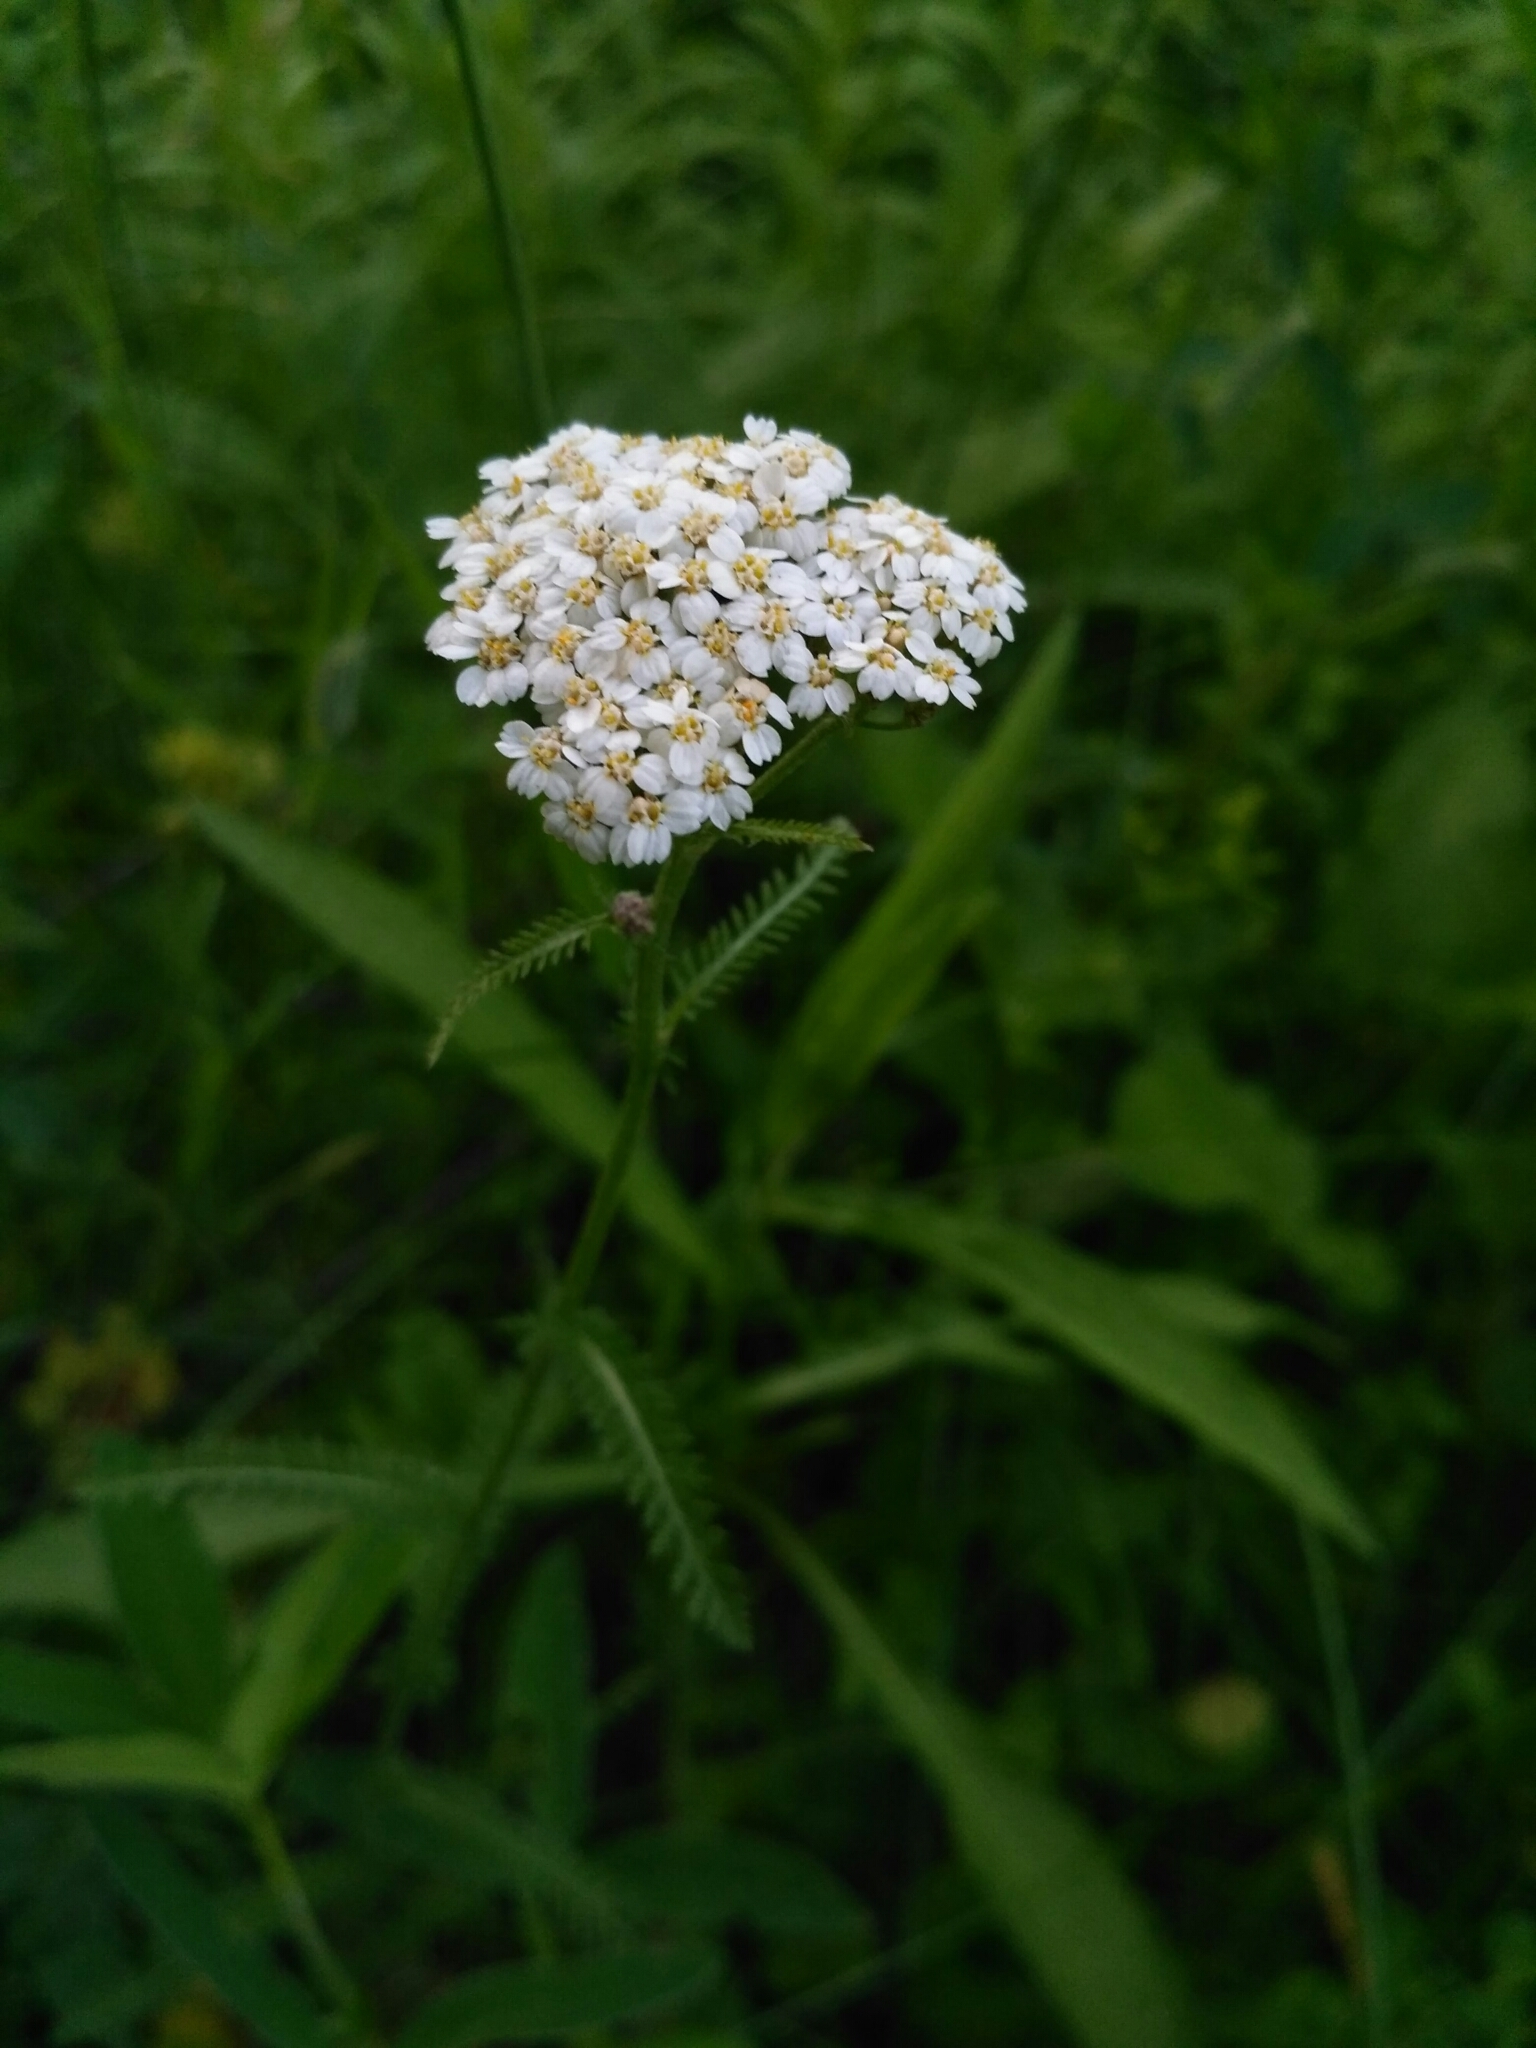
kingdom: Plantae
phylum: Tracheophyta
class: Magnoliopsida
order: Asterales
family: Asteraceae
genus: Achillea
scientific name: Achillea millefolium
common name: Yarrow
